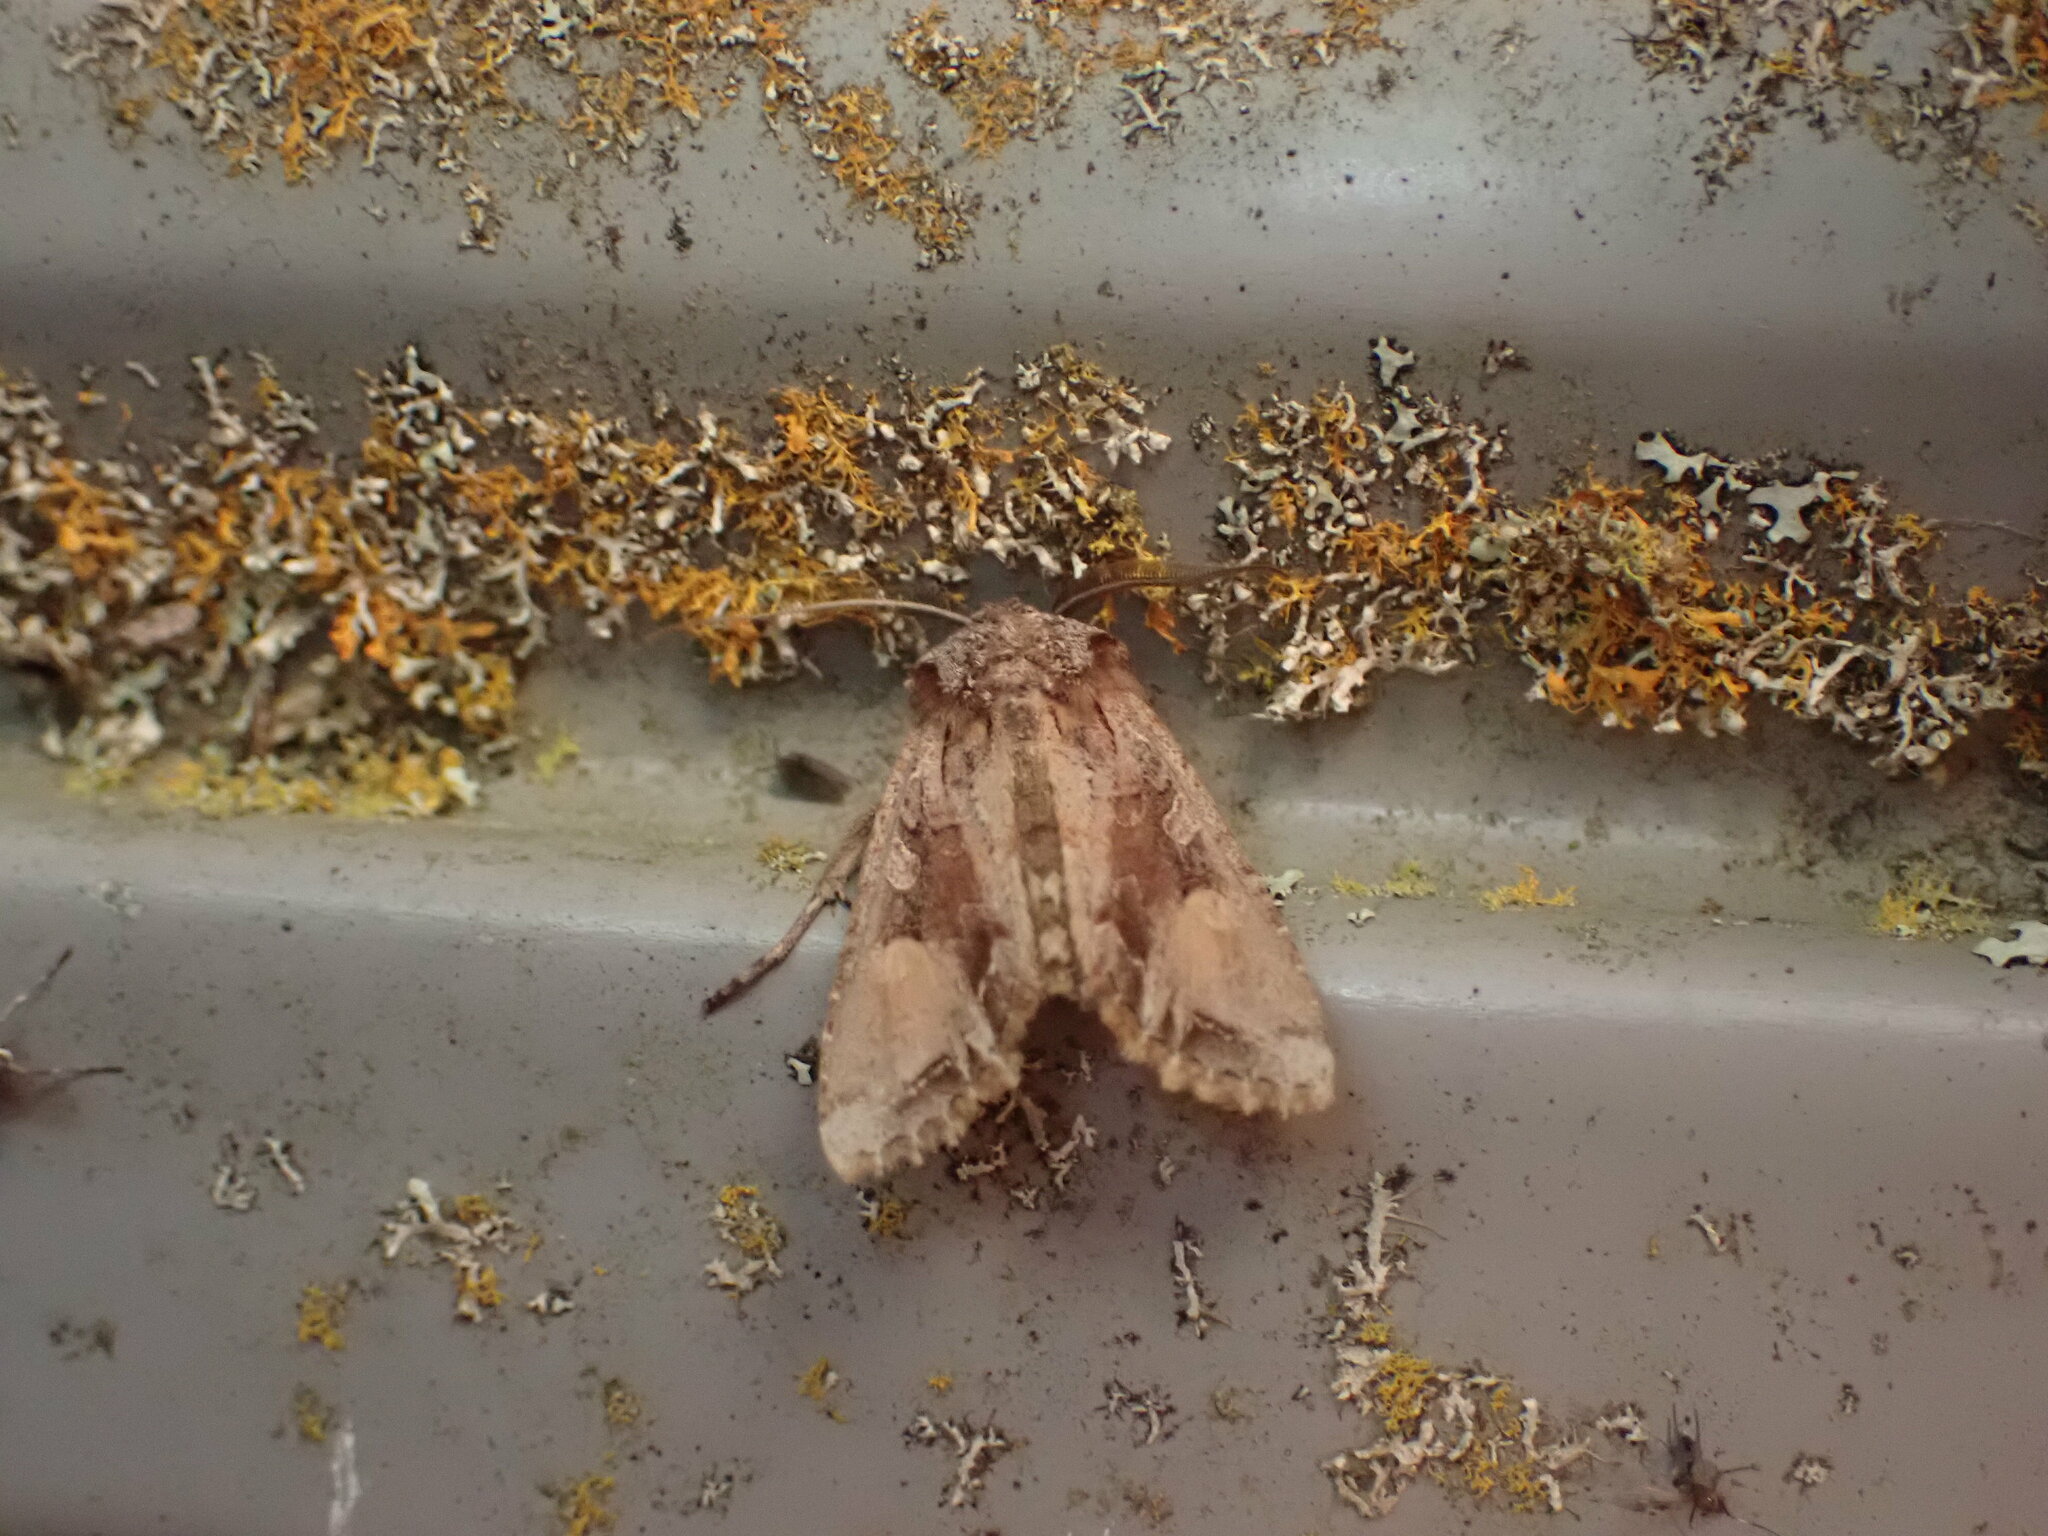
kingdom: Animalia
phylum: Arthropoda
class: Insecta
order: Lepidoptera
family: Noctuidae
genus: Ichneutica
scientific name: Ichneutica
